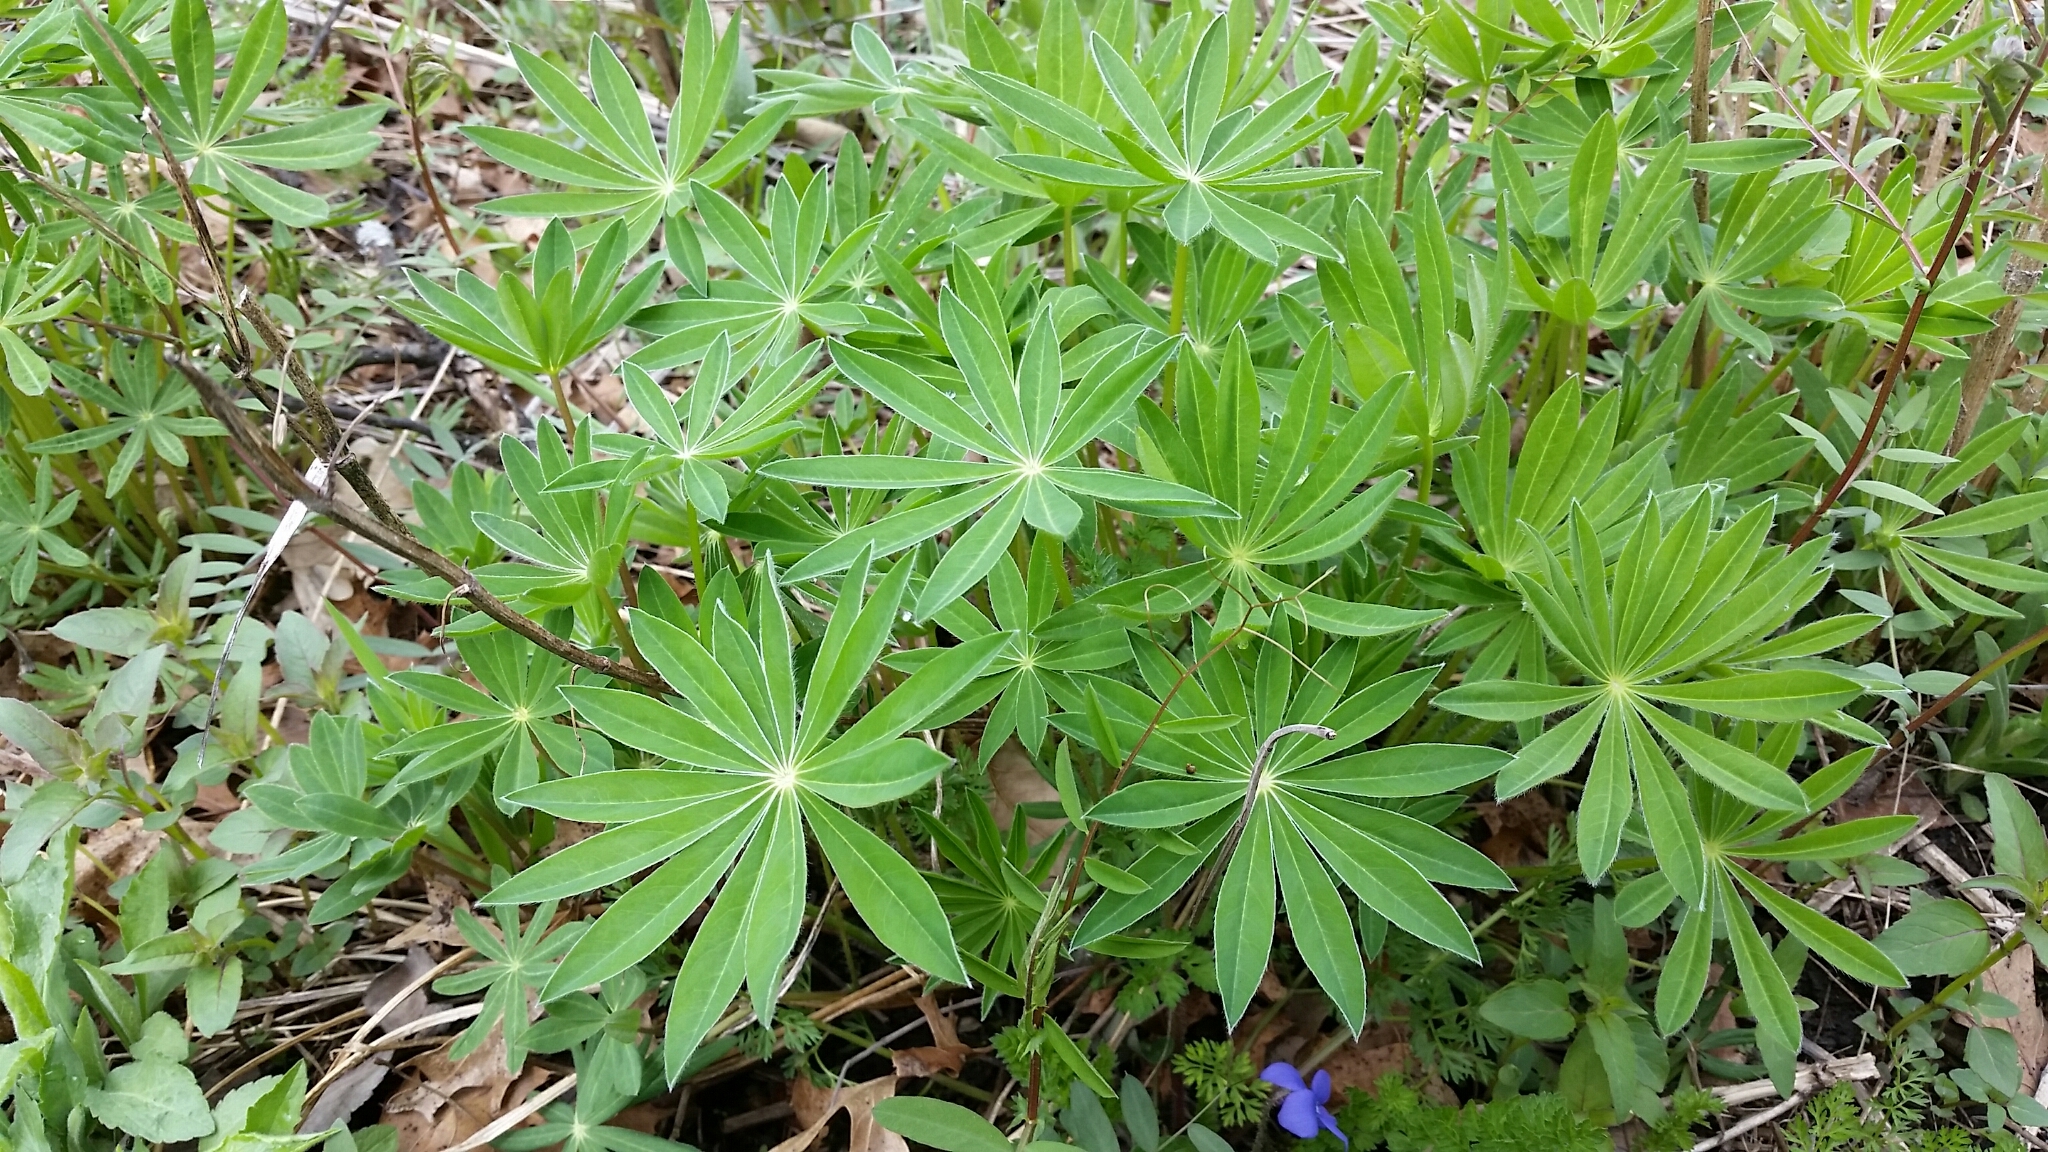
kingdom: Plantae
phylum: Tracheophyta
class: Magnoliopsida
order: Fabales
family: Fabaceae
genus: Lupinus
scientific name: Lupinus perennis
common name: Sundial lupine
